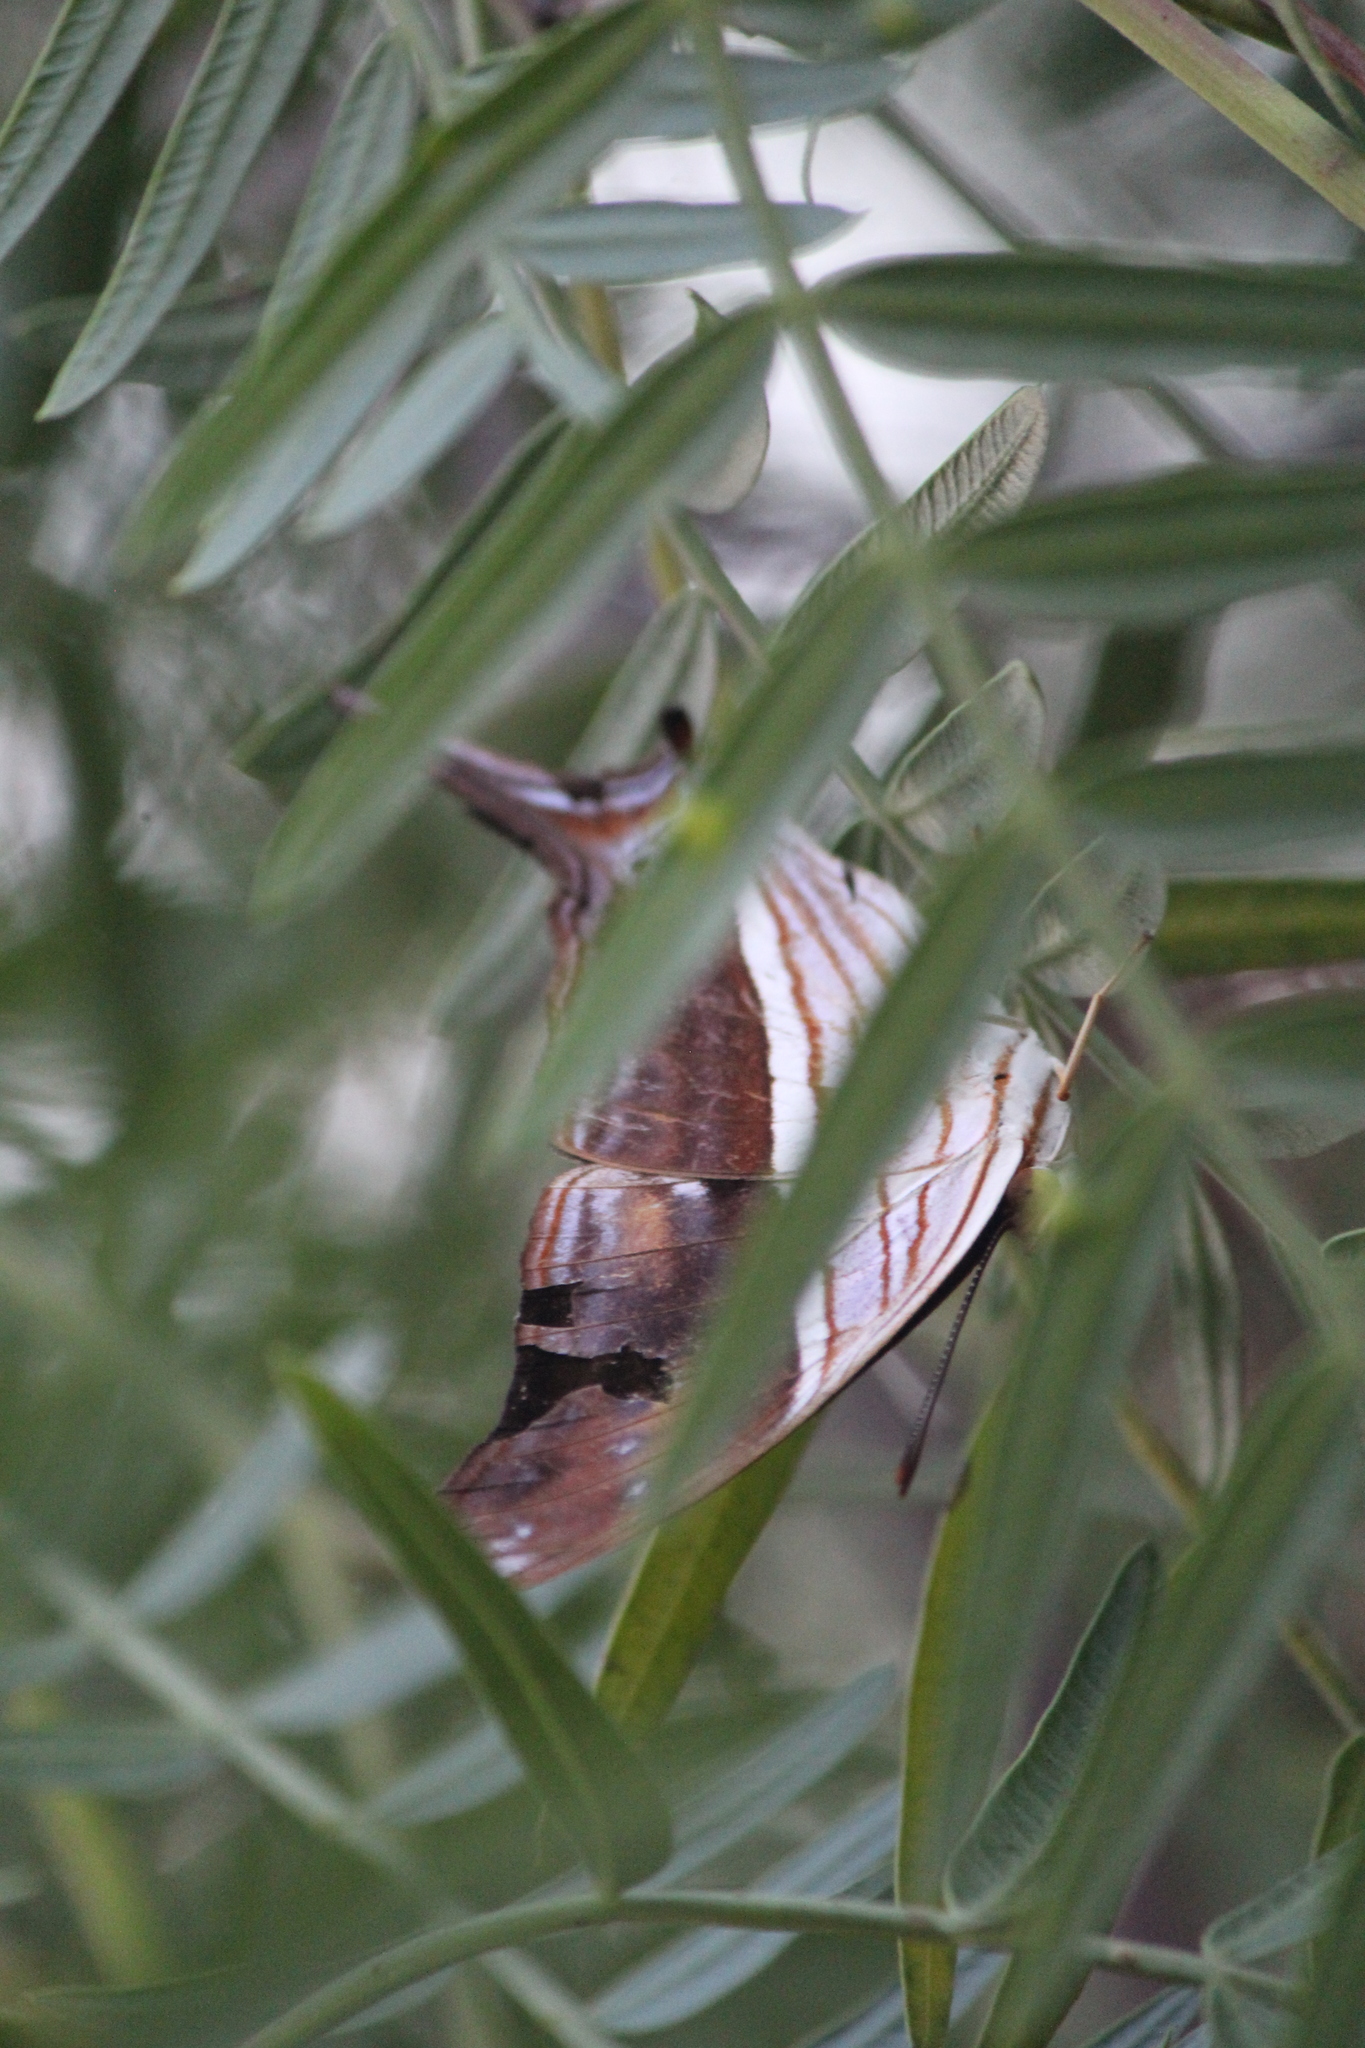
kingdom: Animalia
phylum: Arthropoda
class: Insecta
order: Lepidoptera
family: Nymphalidae
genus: Marpesia
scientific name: Marpesia chiron
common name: Many-banded daggerwing
